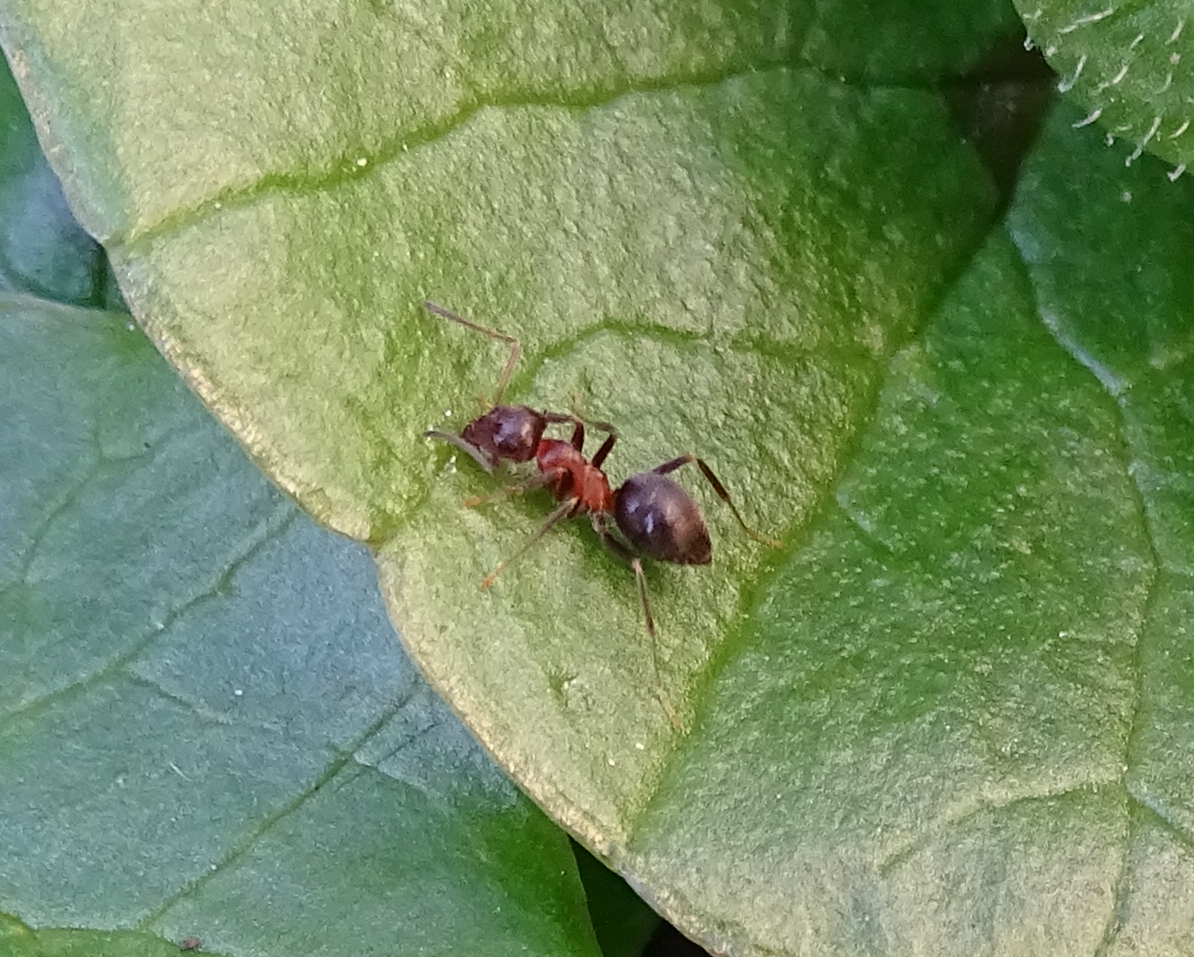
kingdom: Animalia
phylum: Arthropoda
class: Insecta
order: Hymenoptera
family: Formicidae
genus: Lasius
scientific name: Lasius emarginatus
